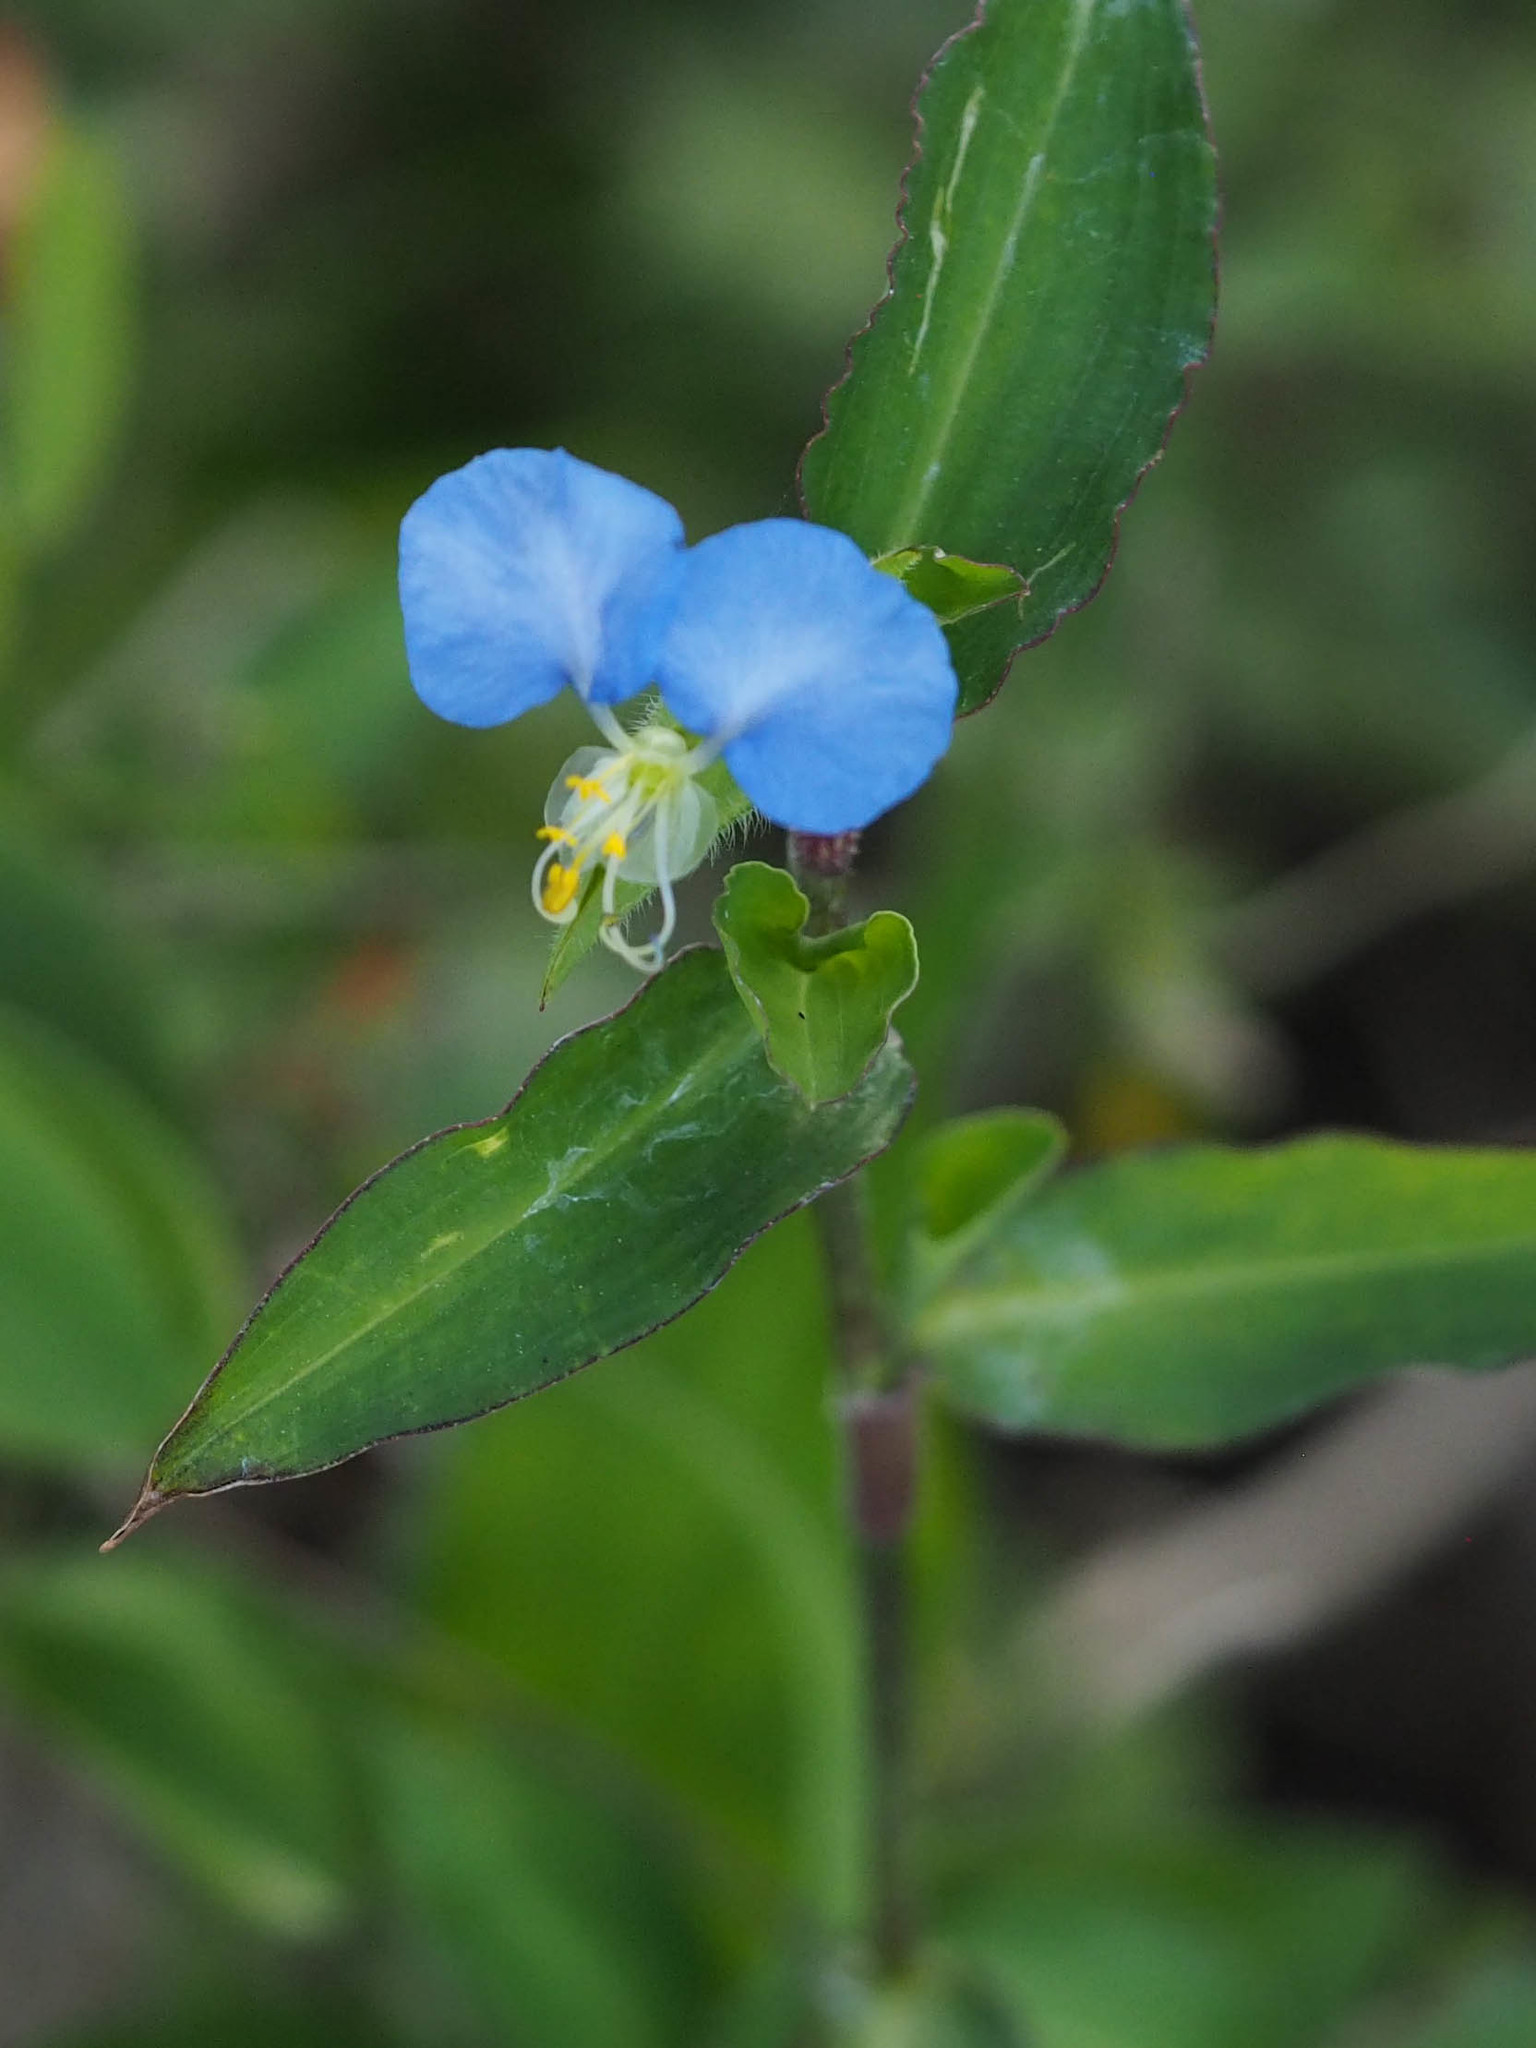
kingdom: Plantae
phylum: Tracheophyta
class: Liliopsida
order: Commelinales
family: Commelinaceae
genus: Commelina
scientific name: Commelina erecta
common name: Blousel blommetjie
